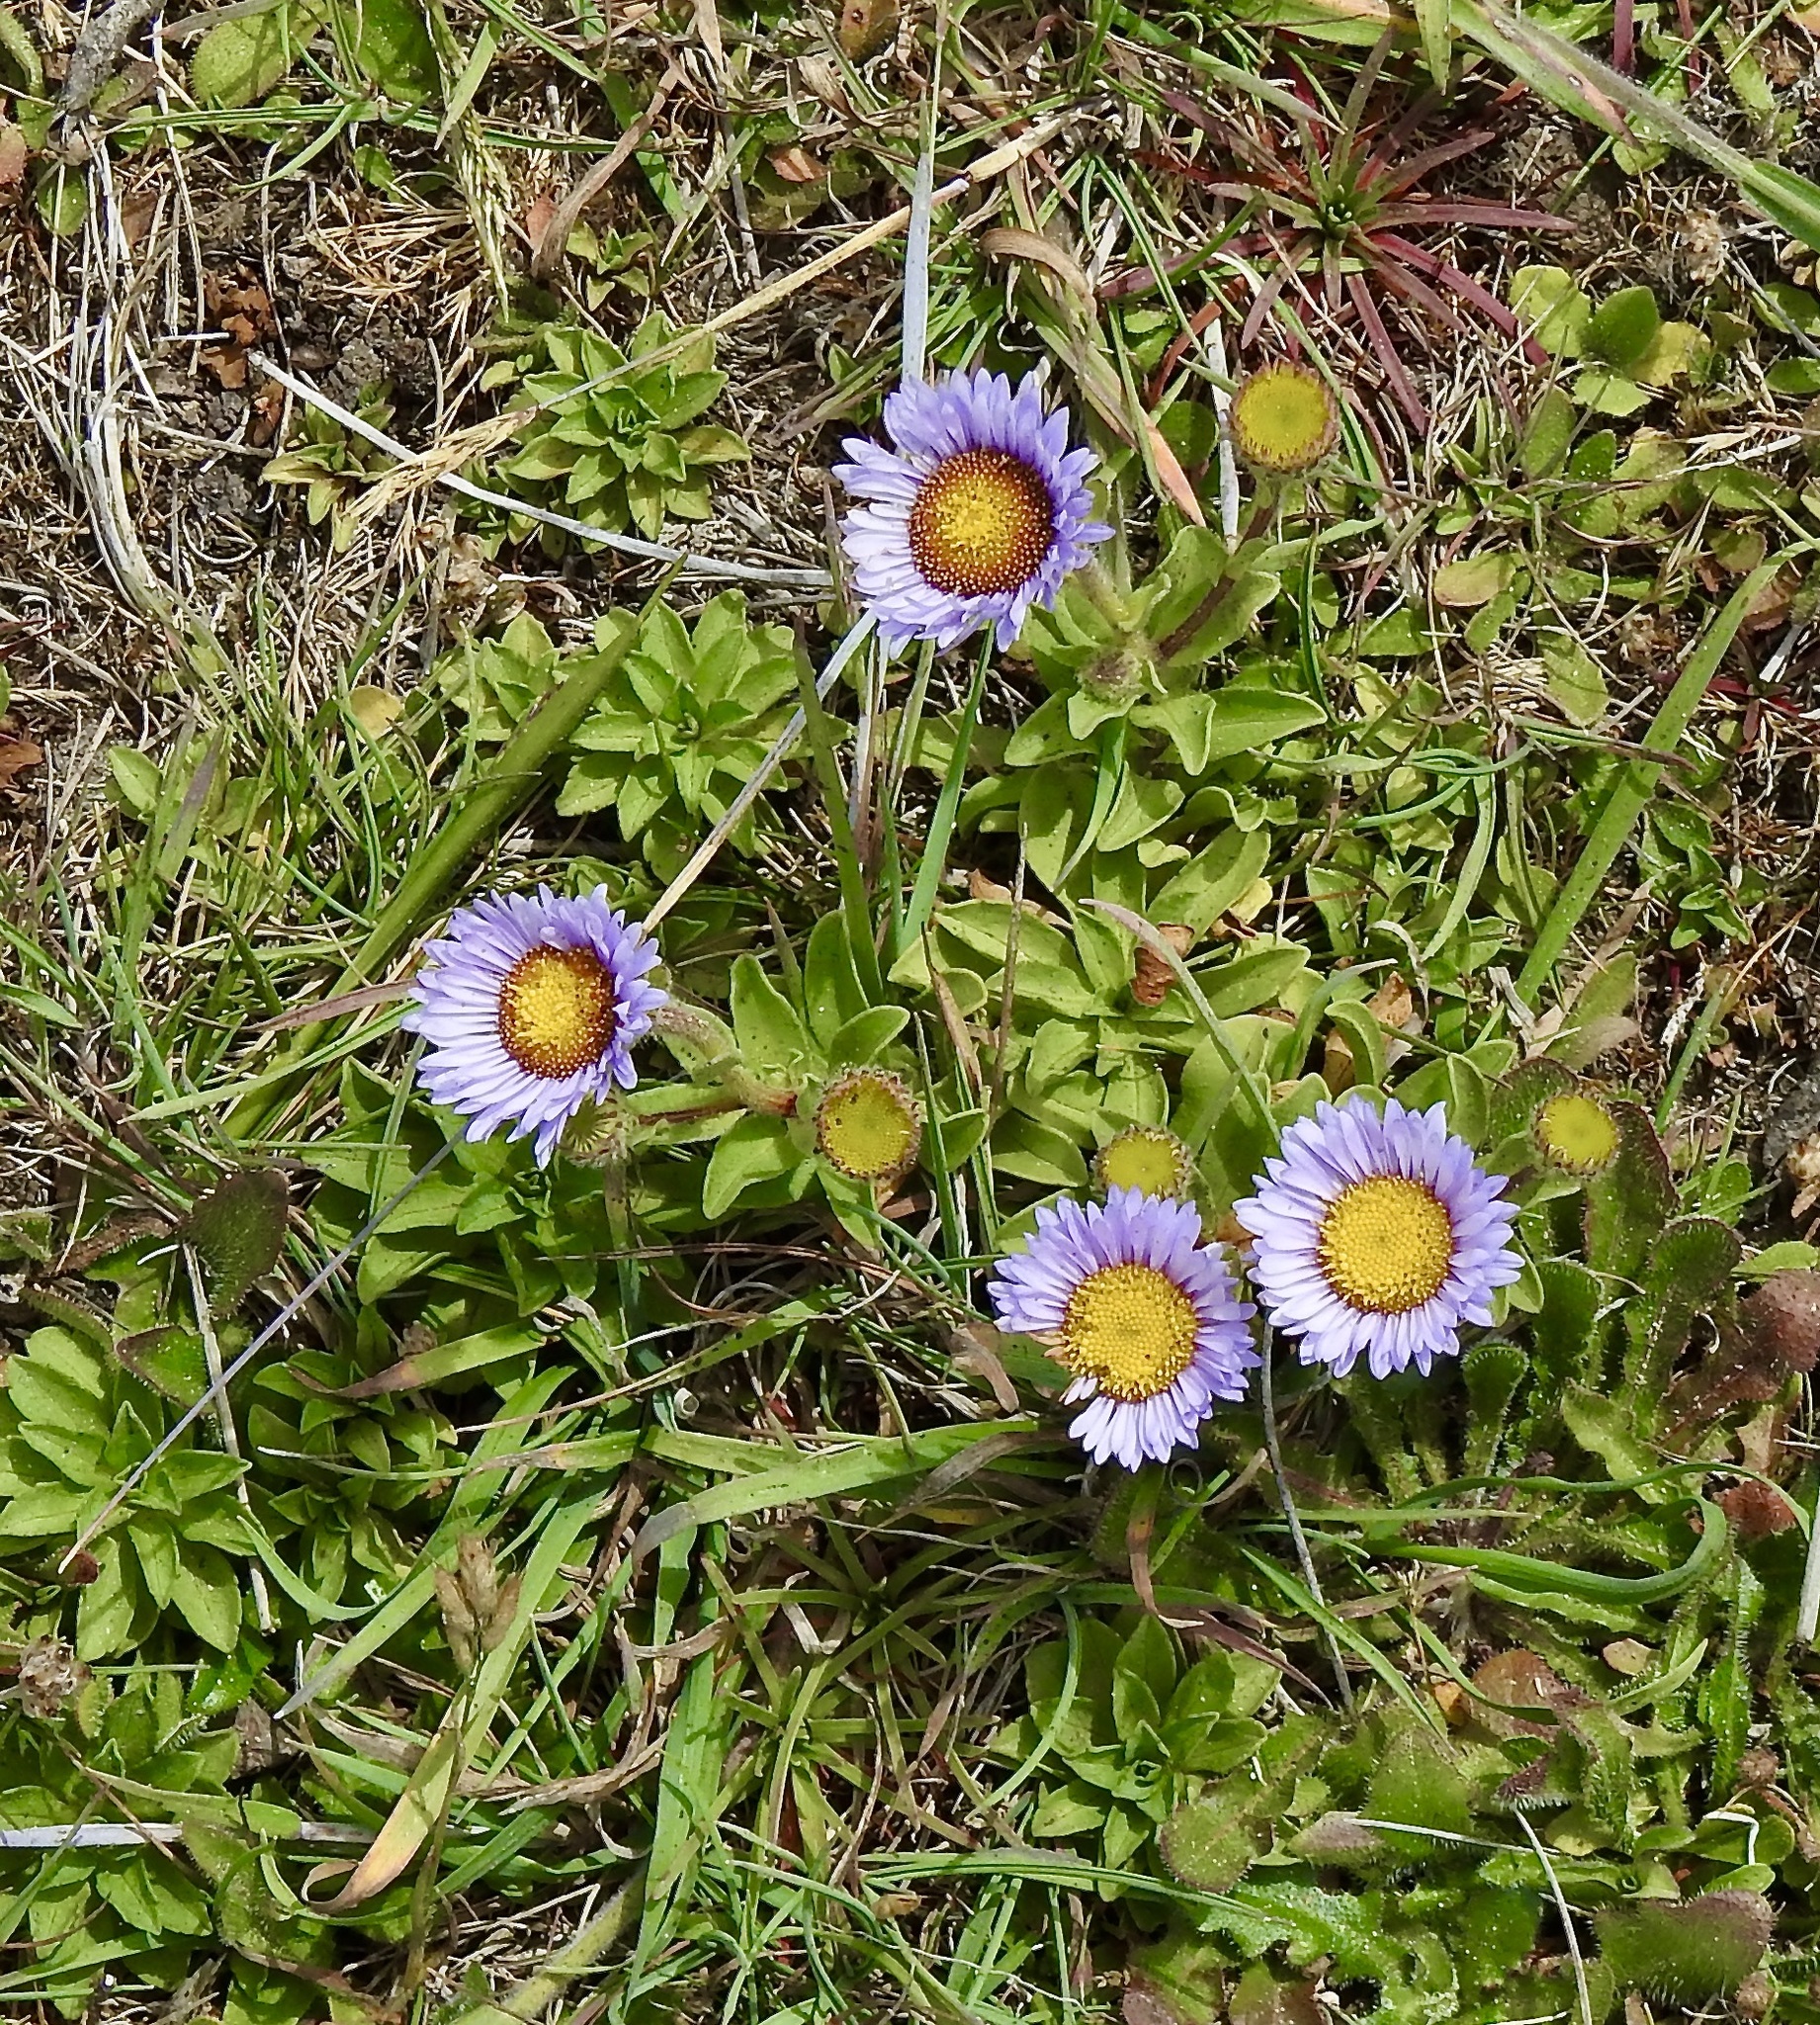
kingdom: Plantae
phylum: Tracheophyta
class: Magnoliopsida
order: Asterales
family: Asteraceae
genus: Erigeron
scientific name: Erigeron glaucus
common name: Seaside daisy
